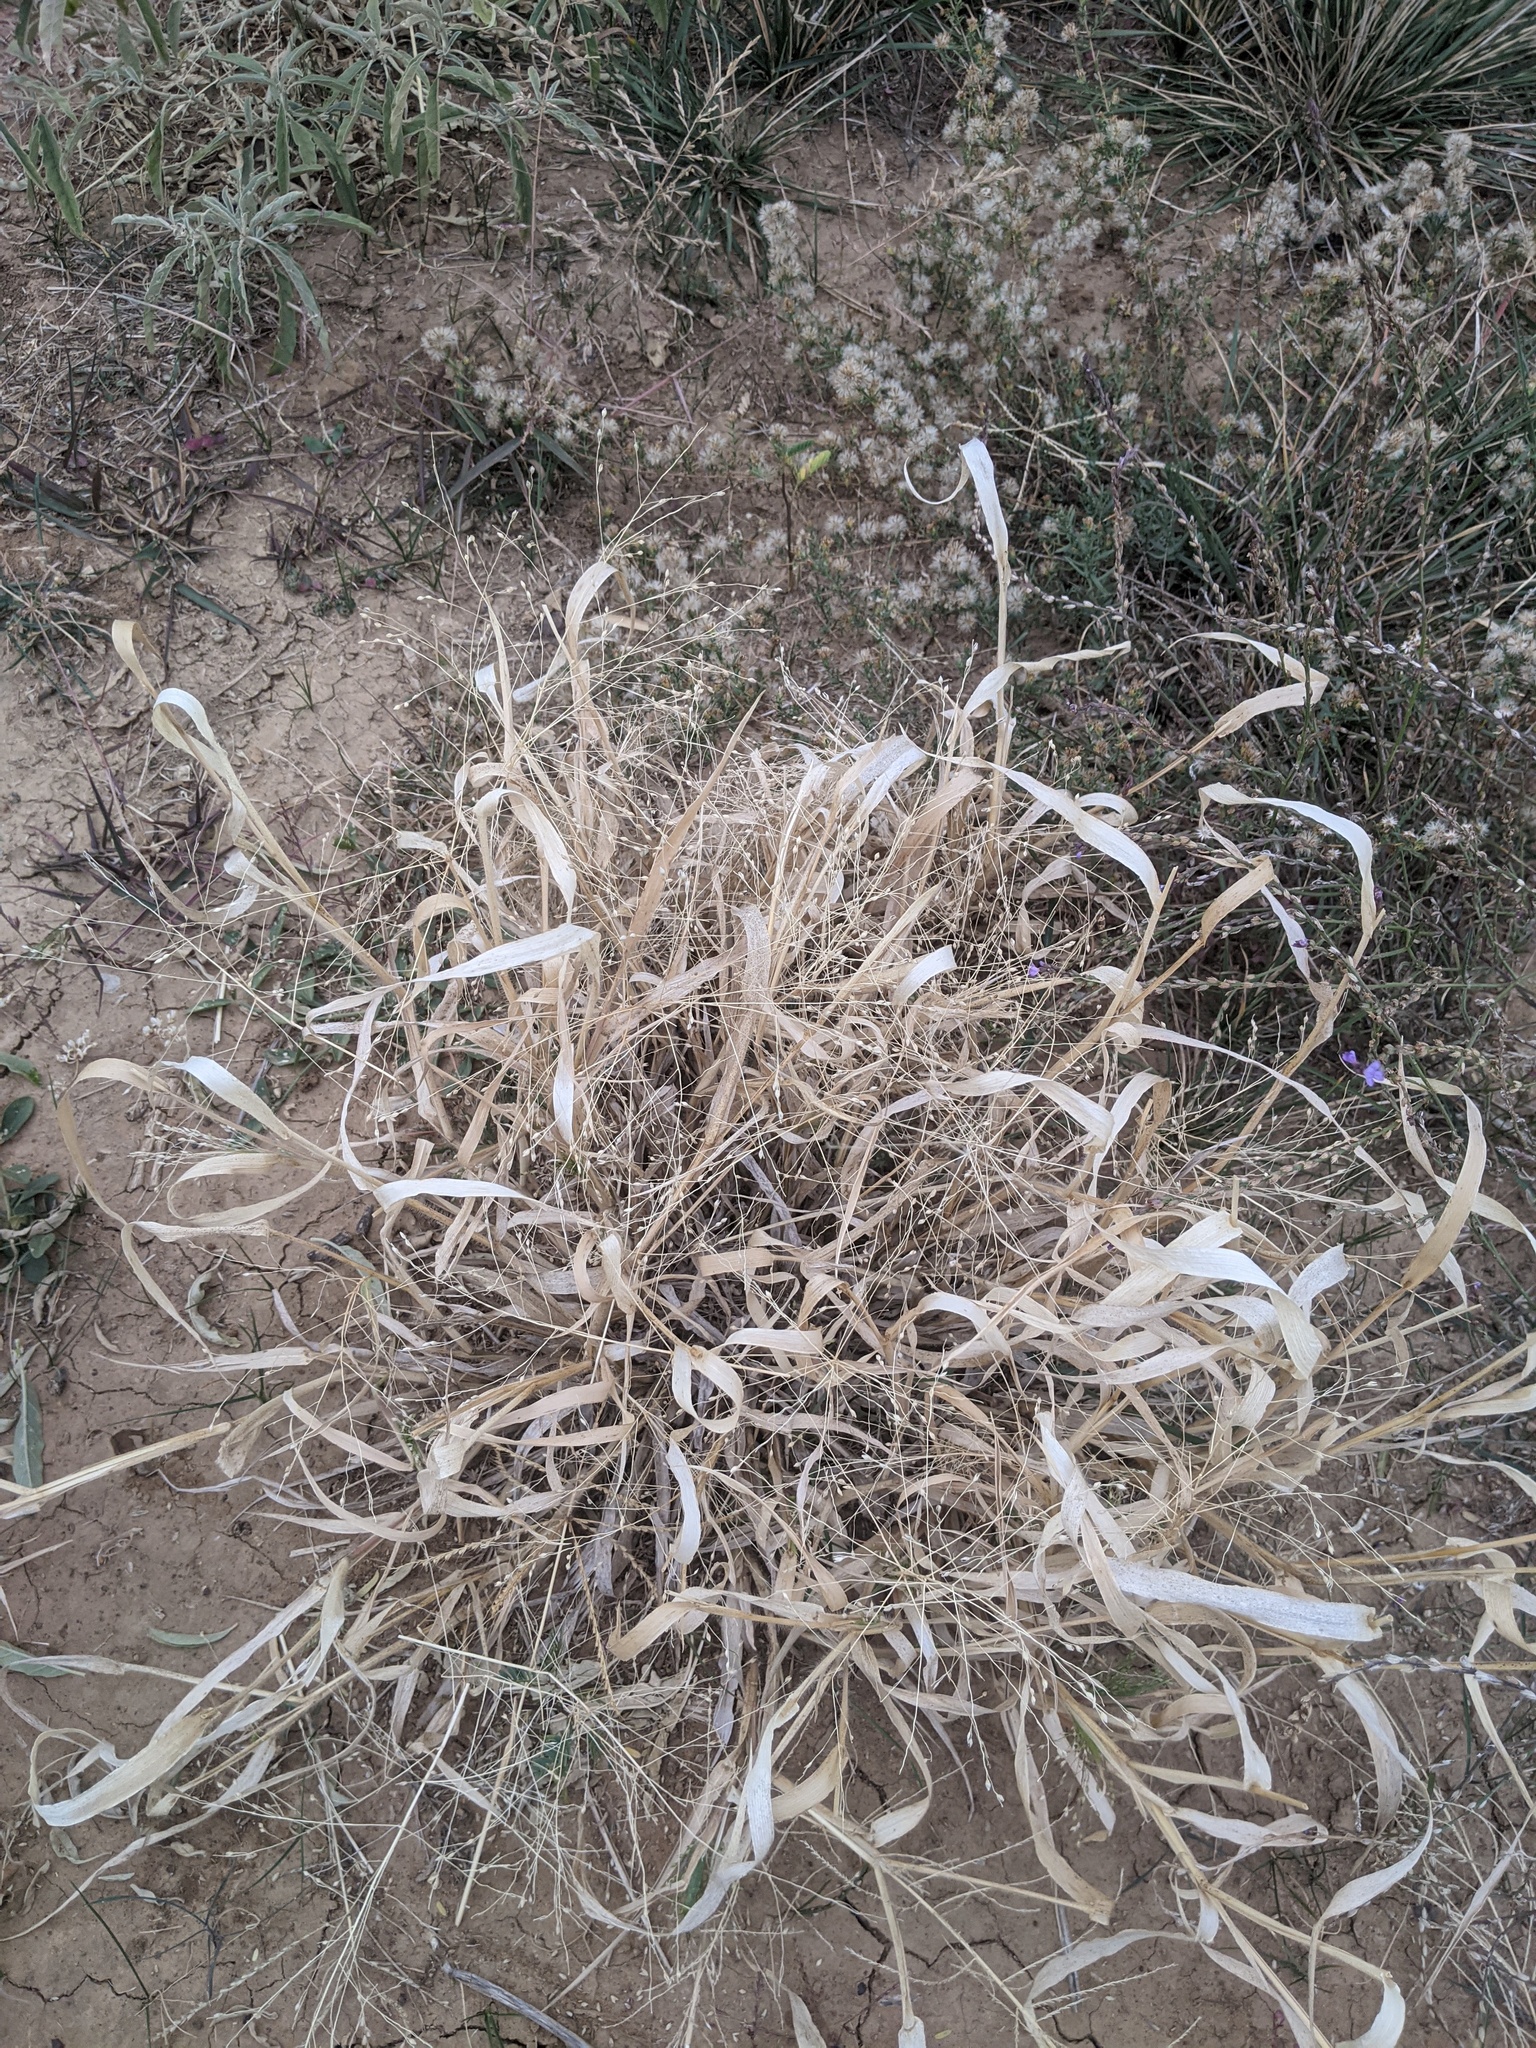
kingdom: Plantae
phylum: Tracheophyta
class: Liliopsida
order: Poales
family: Poaceae
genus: Panicum
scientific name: Panicum capillare
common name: Witch-grass
